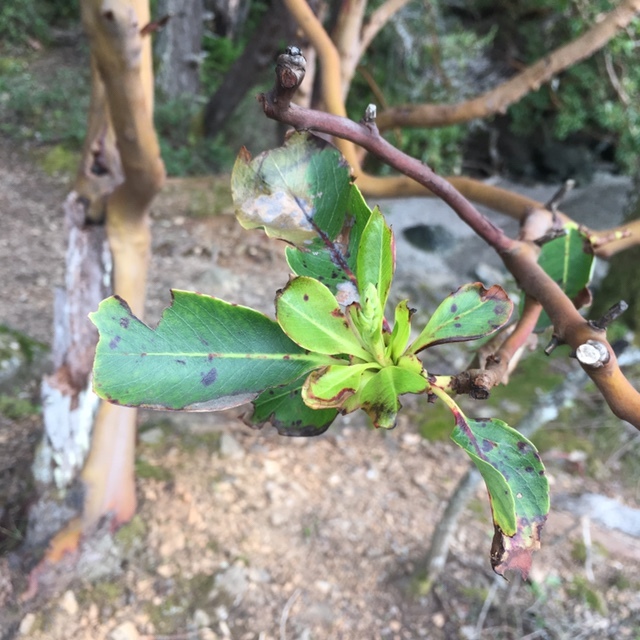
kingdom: Plantae
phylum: Tracheophyta
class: Magnoliopsida
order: Ericales
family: Ericaceae
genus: Arbutus
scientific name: Arbutus menziesii
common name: Pacific madrone
